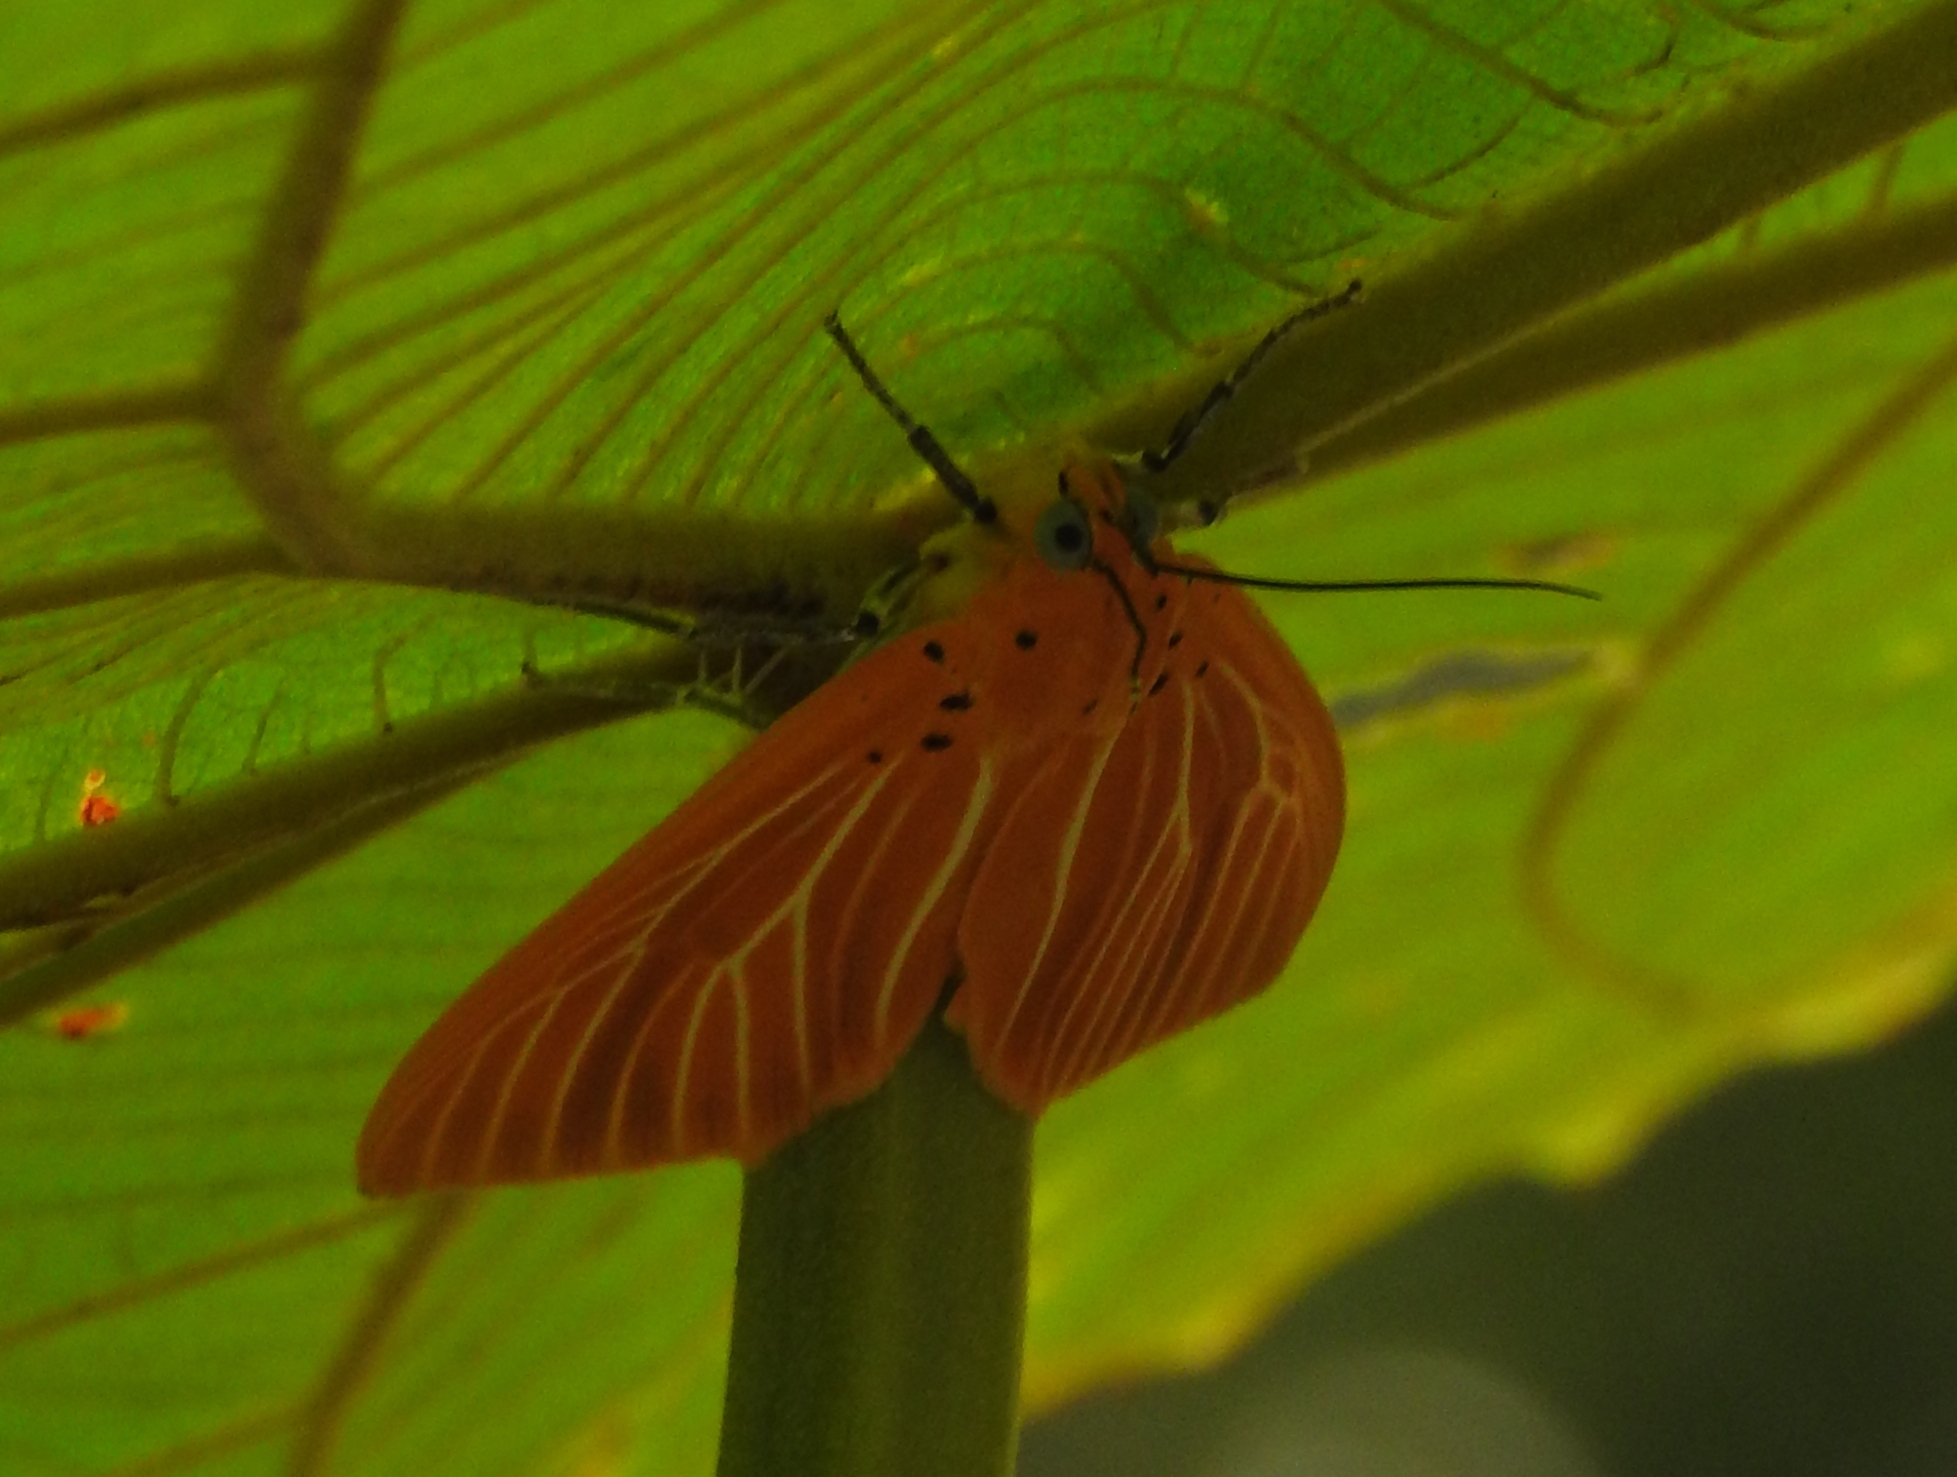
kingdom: Animalia
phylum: Arthropoda
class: Insecta
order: Lepidoptera
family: Erebidae
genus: Asota
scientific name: Asota egens
